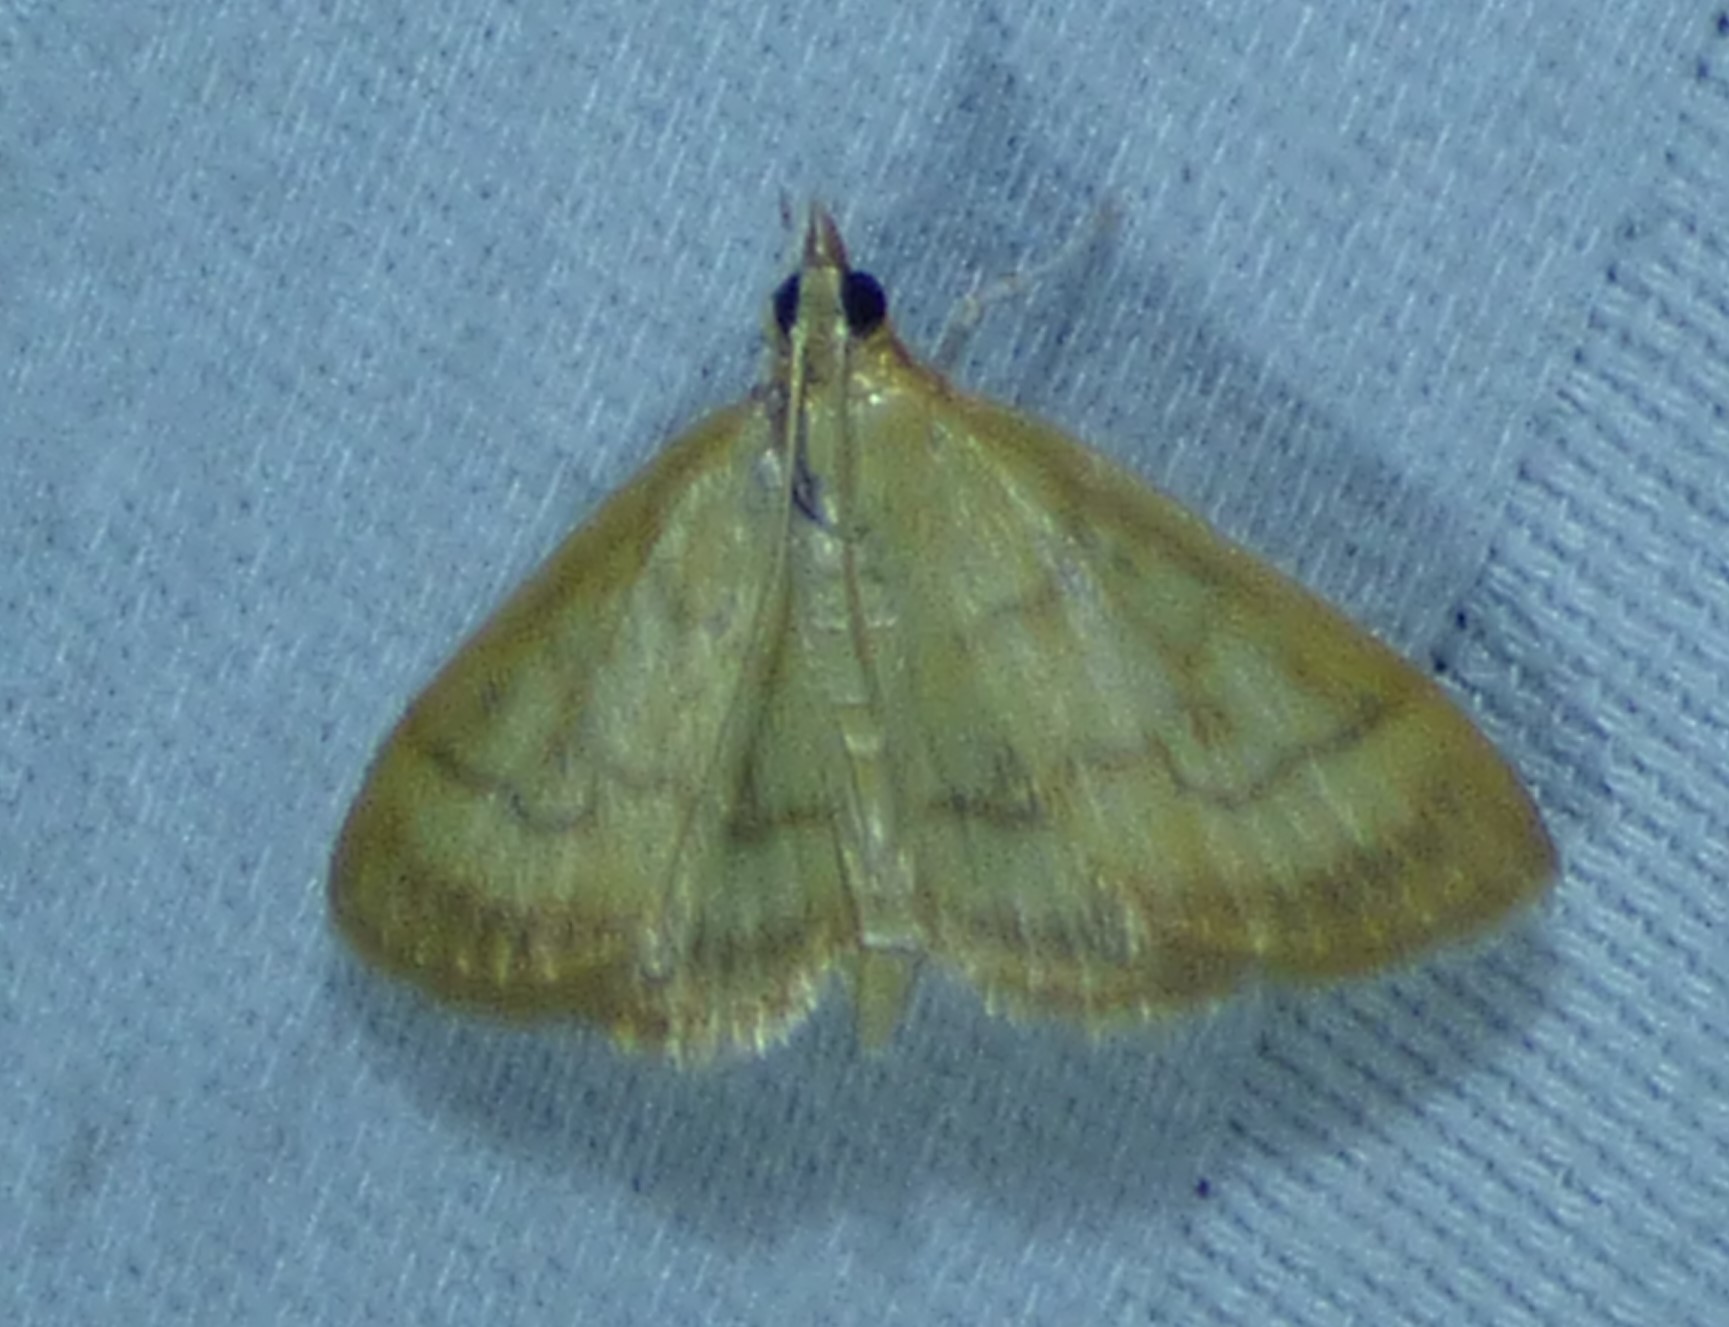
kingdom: Animalia
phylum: Arthropoda
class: Insecta
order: Lepidoptera
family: Crambidae
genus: Crocidophora
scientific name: Crocidophora tuberculalis
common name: Pale-winged crocidiphora moth
